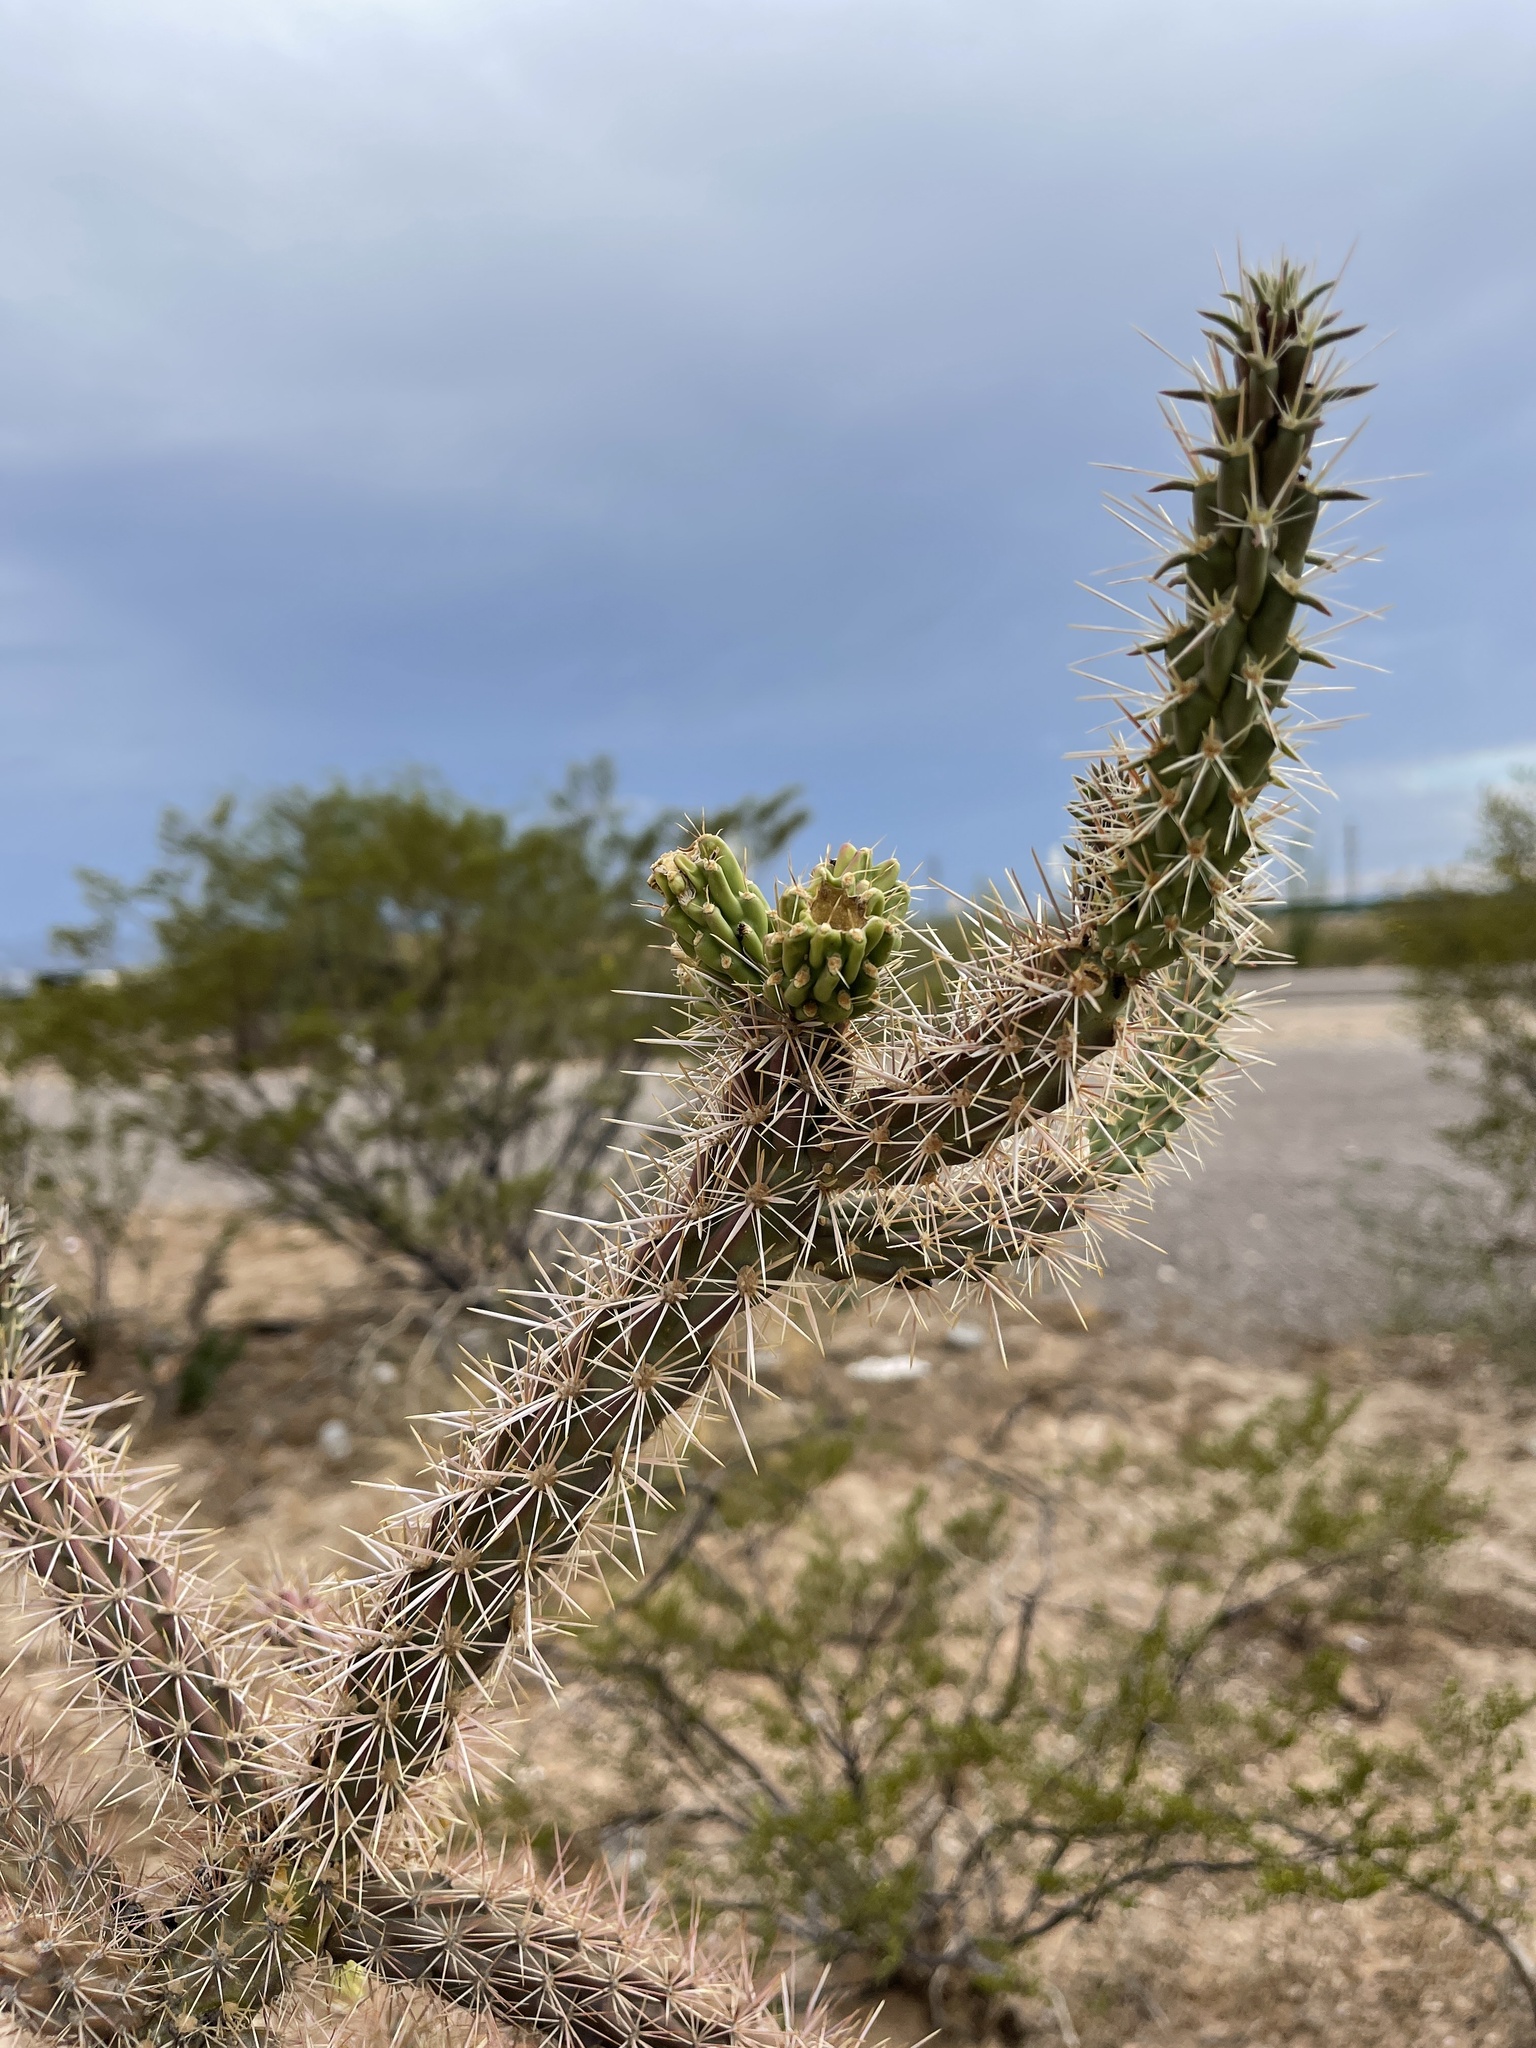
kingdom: Plantae
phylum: Tracheophyta
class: Magnoliopsida
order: Caryophyllales
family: Cactaceae
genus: Cylindropuntia
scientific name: Cylindropuntia imbricata
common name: Candelabrum cactus
